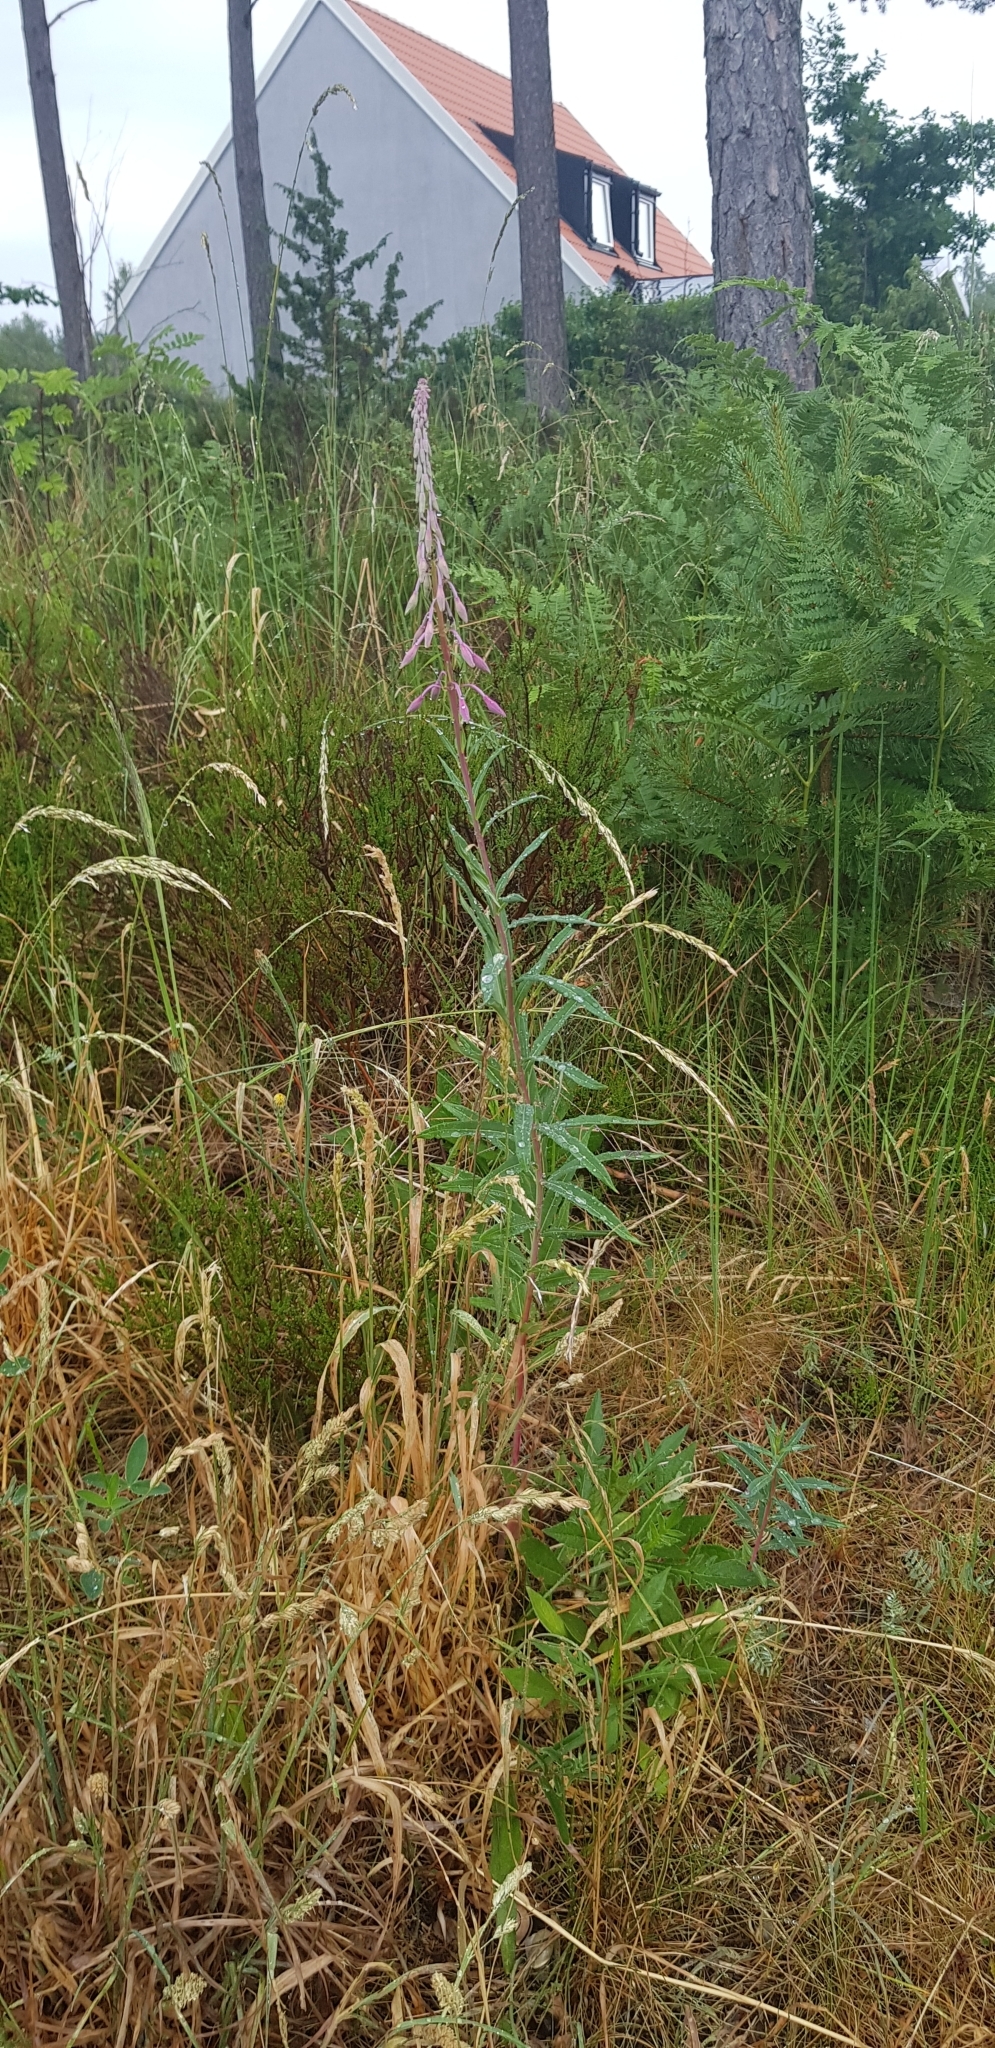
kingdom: Plantae
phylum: Tracheophyta
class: Magnoliopsida
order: Myrtales
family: Onagraceae
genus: Chamaenerion
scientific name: Chamaenerion angustifolium
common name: Fireweed
